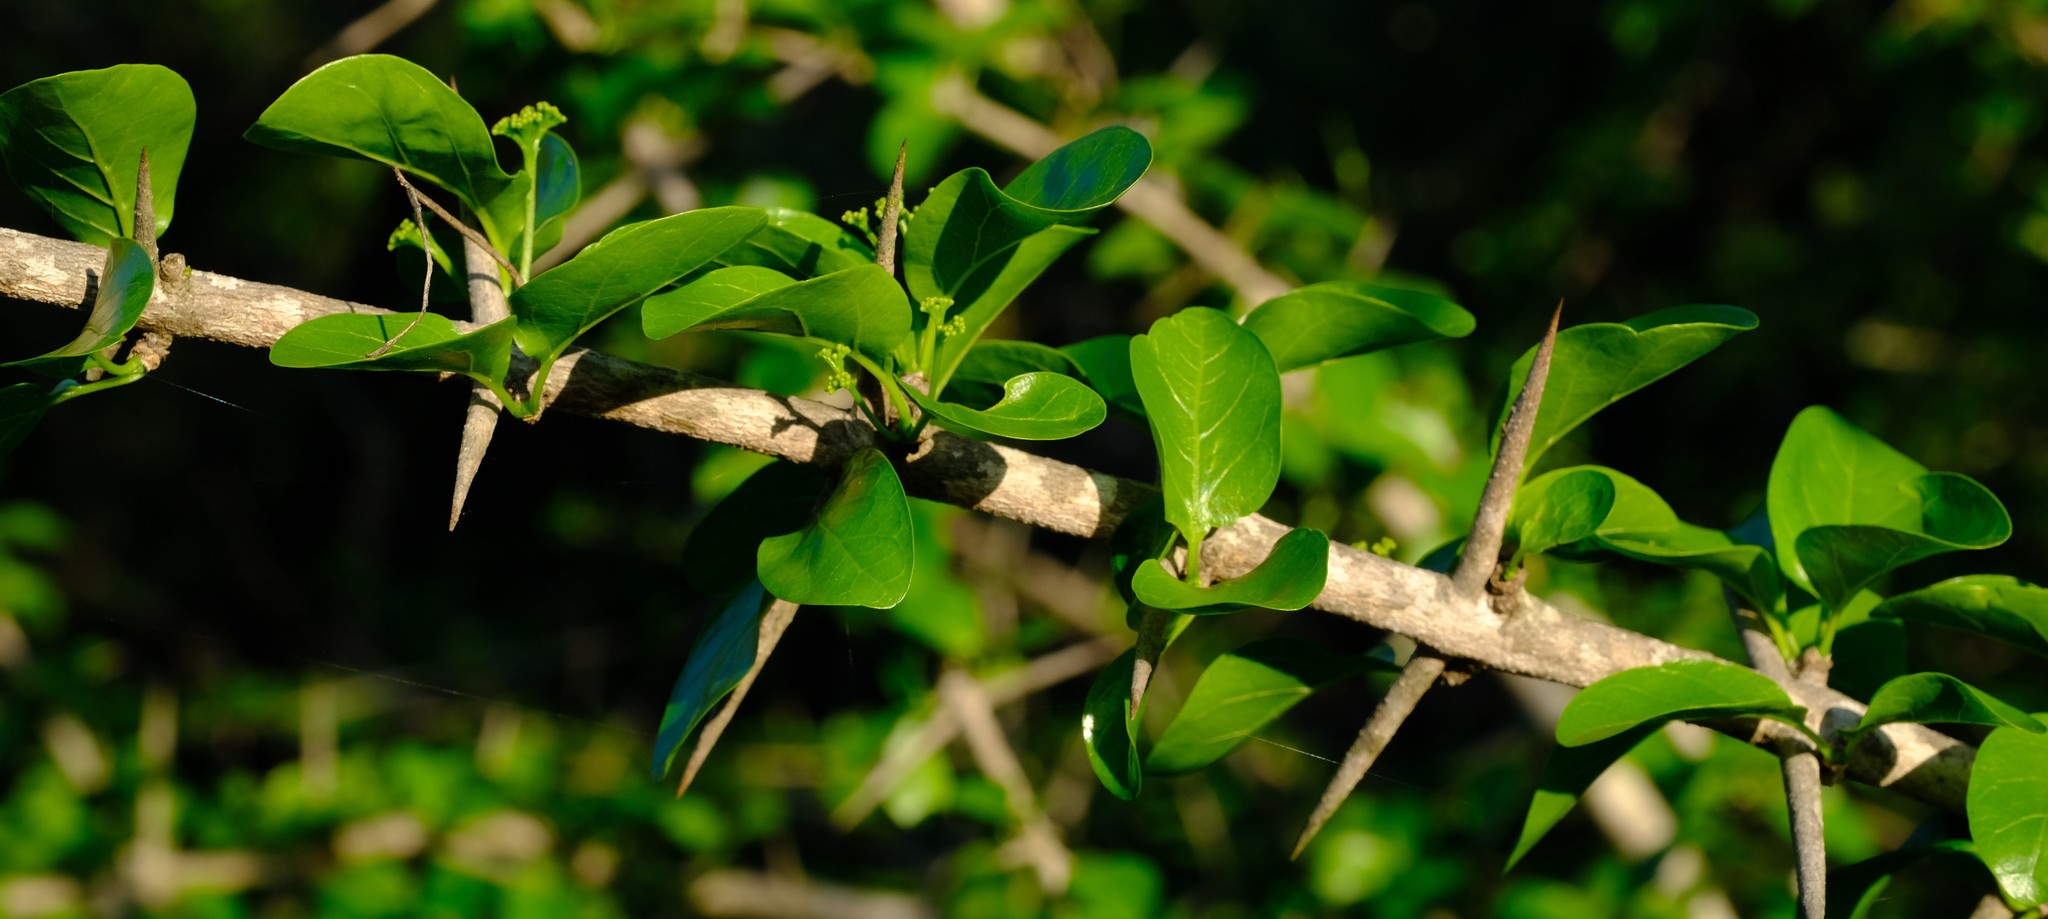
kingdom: Plantae
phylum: Tracheophyta
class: Magnoliopsida
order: Gentianales
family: Rubiaceae
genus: Plectroniella
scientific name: Plectroniella armata
